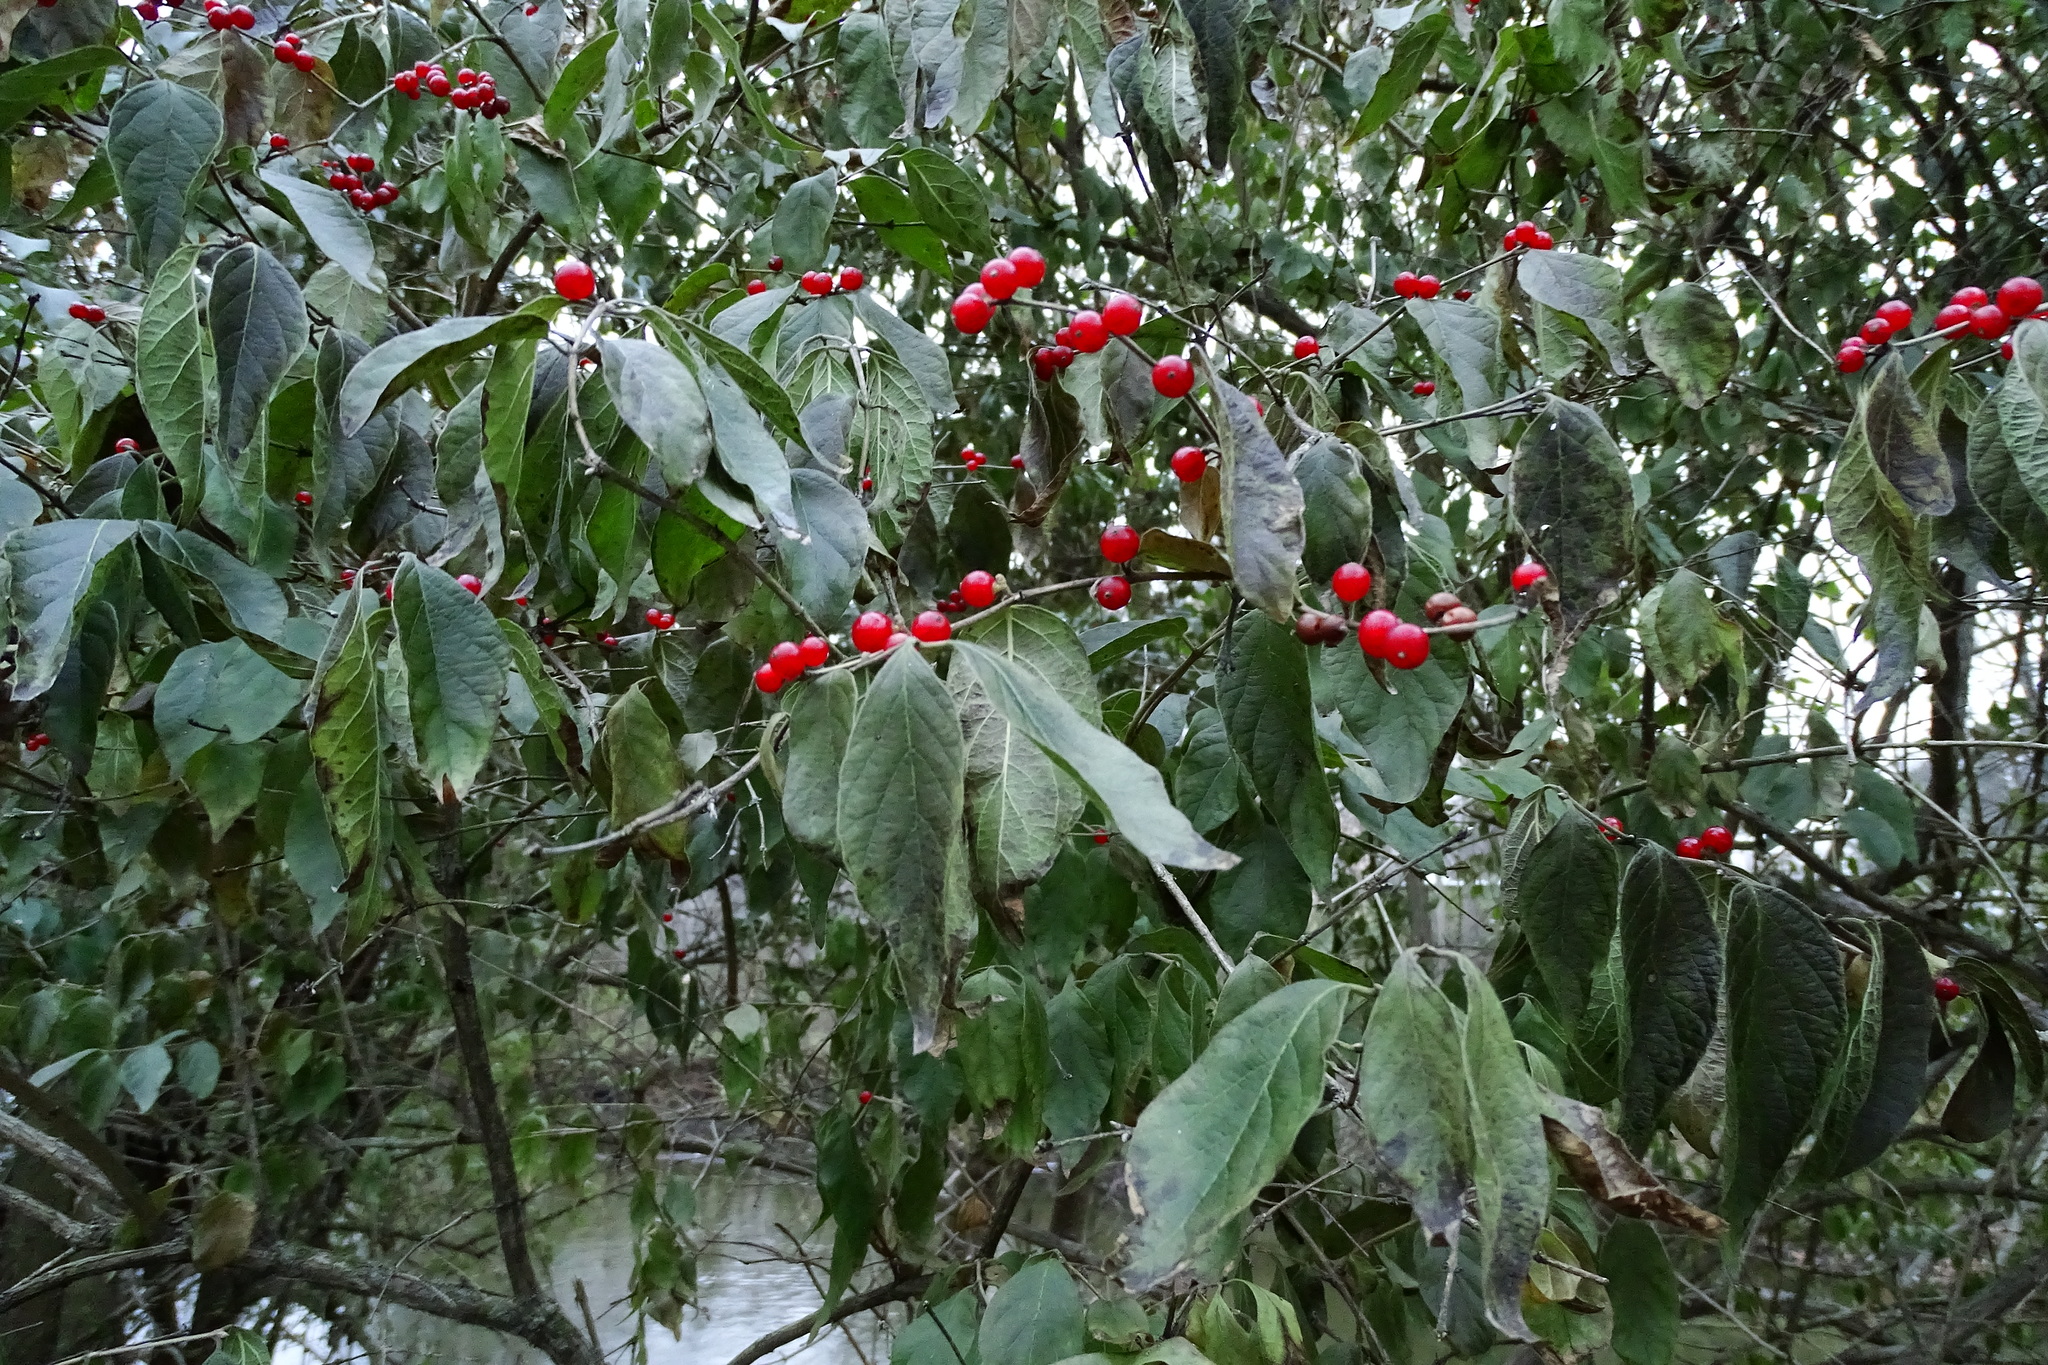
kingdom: Plantae
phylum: Tracheophyta
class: Magnoliopsida
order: Dipsacales
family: Caprifoliaceae
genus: Lonicera
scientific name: Lonicera maackii
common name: Amur honeysuckle
